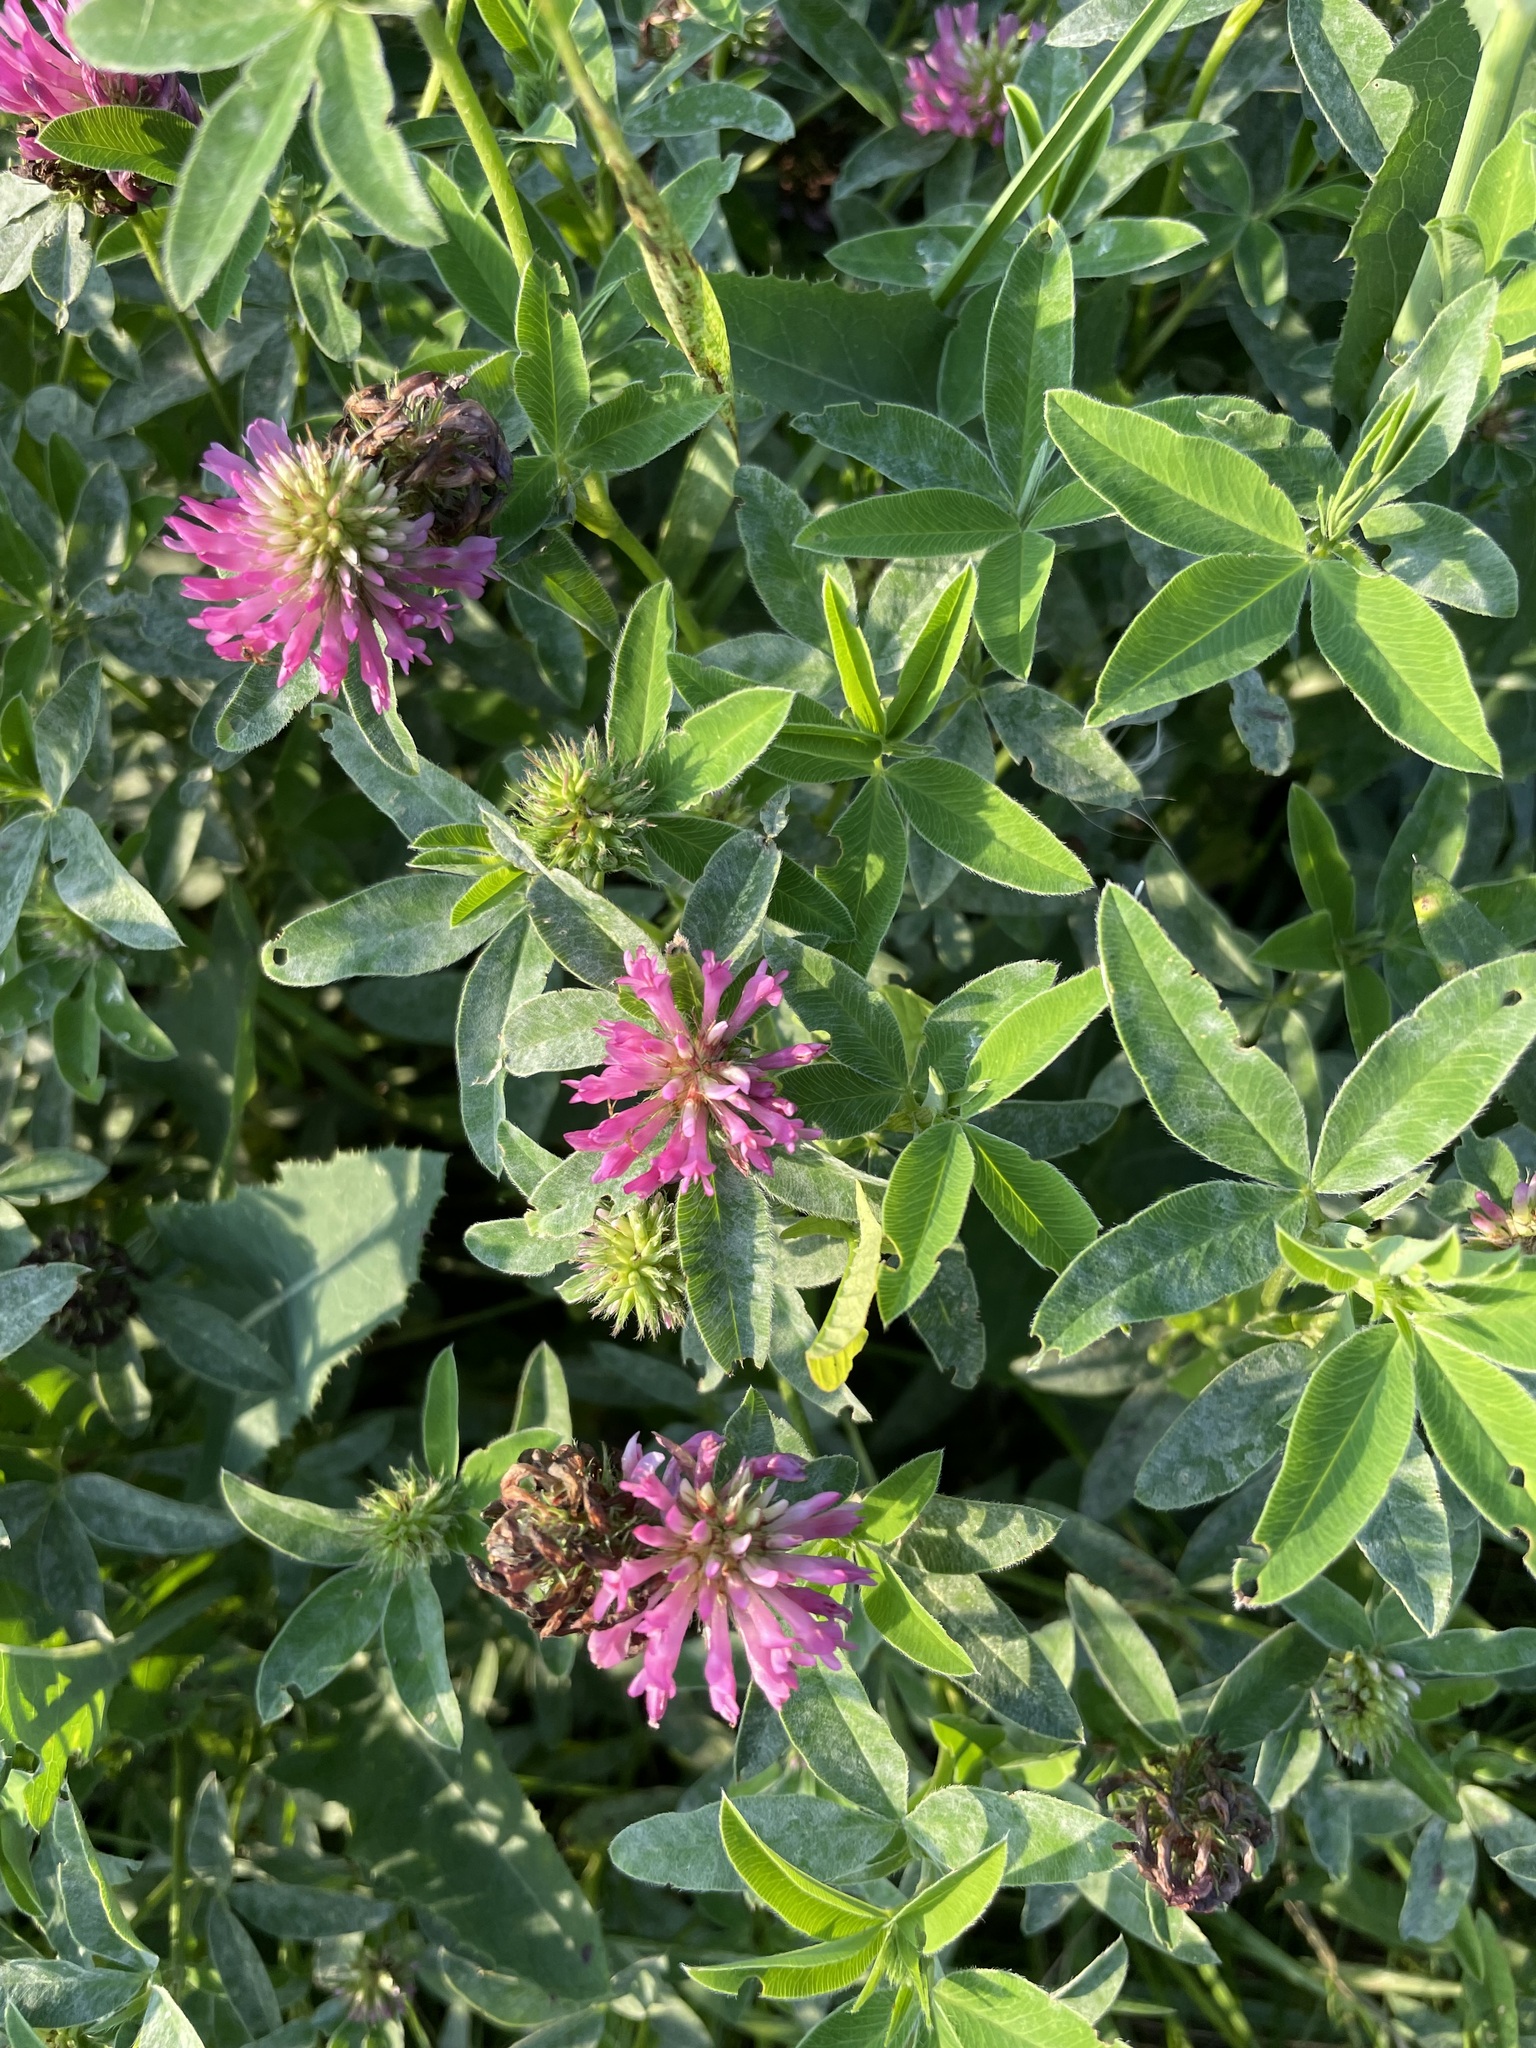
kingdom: Plantae
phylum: Tracheophyta
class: Magnoliopsida
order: Fabales
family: Fabaceae
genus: Trifolium
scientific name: Trifolium medium
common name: Zigzag clover
